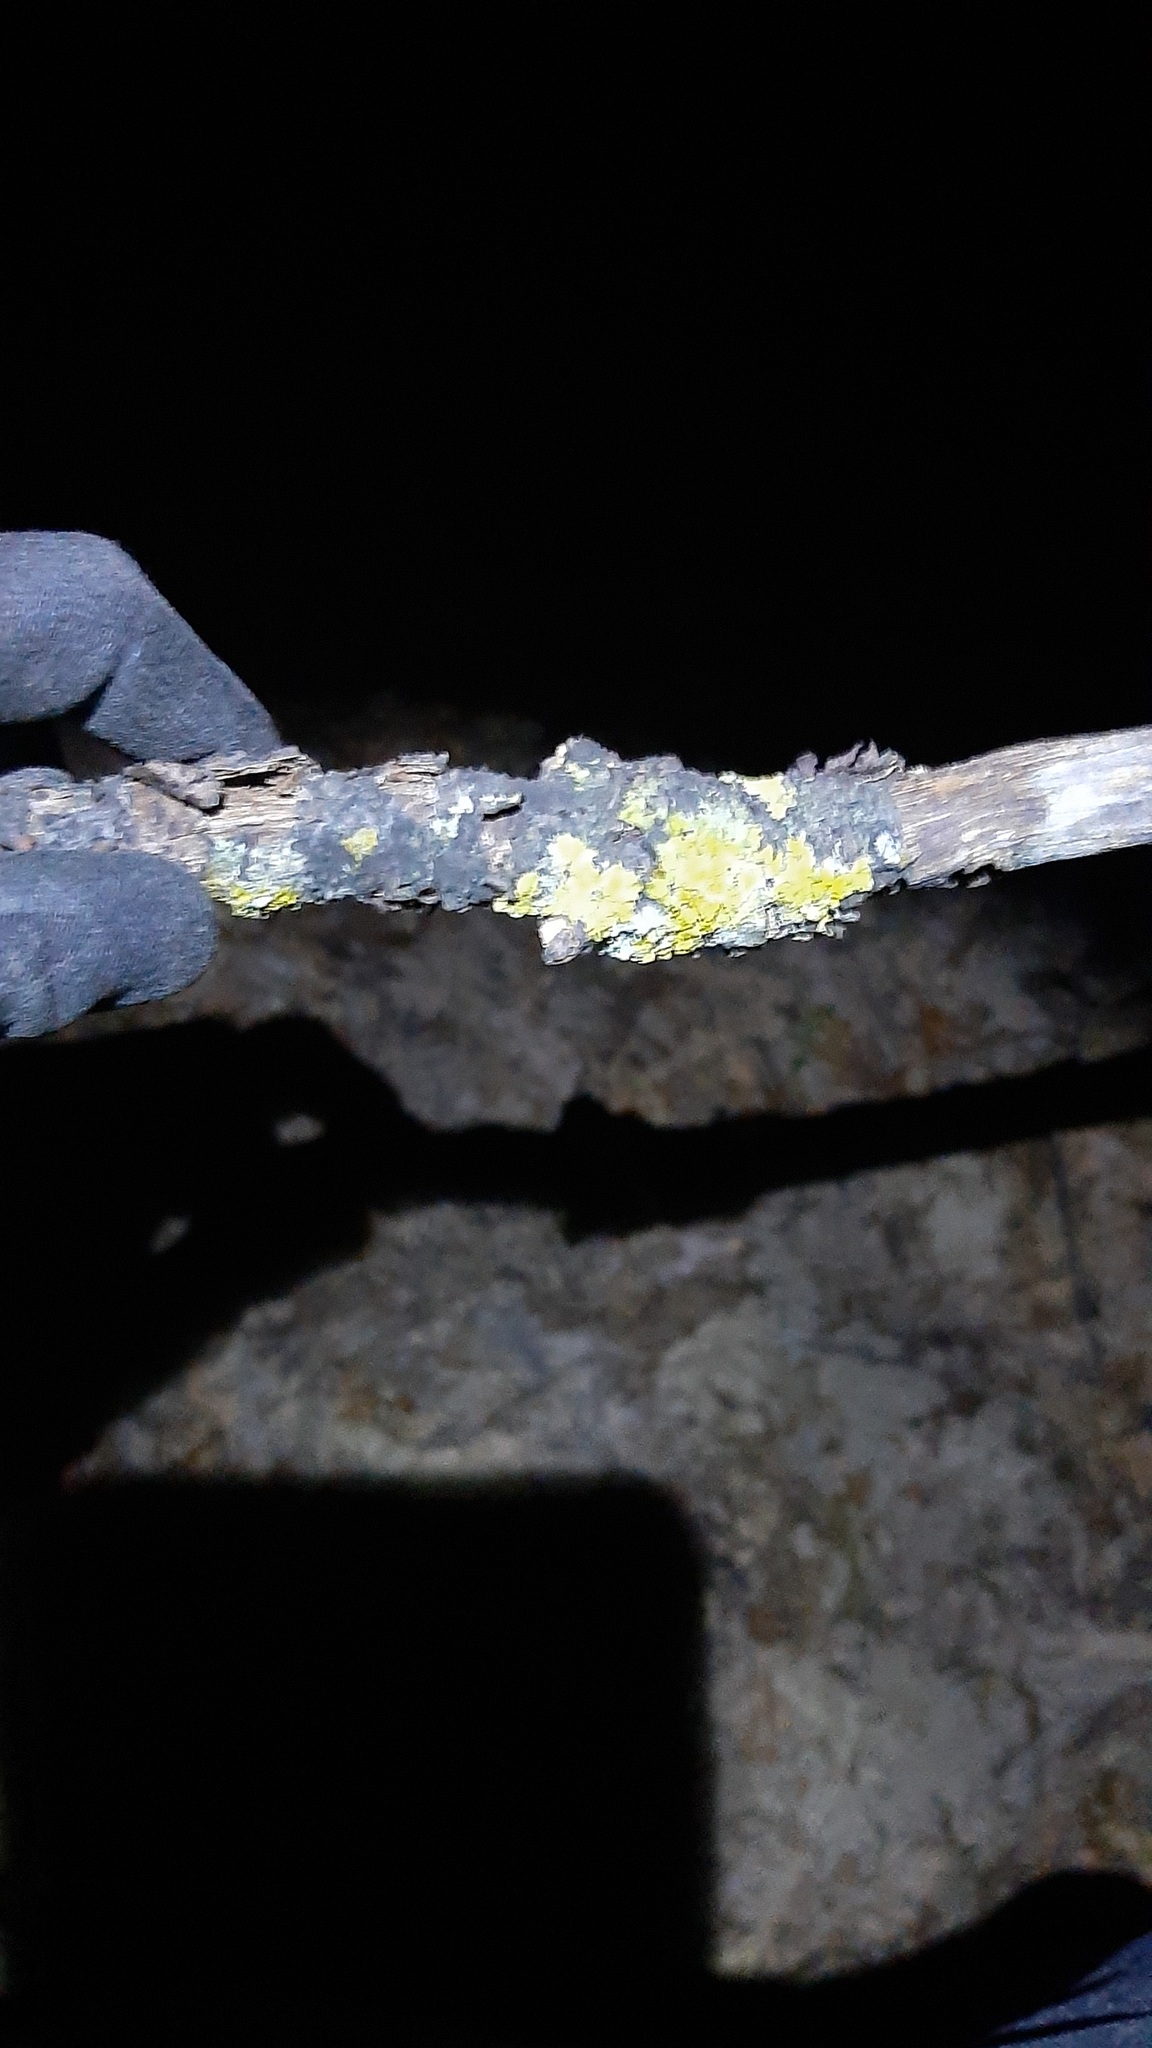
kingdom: Fungi
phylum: Ascomycota
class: Lecanoromycetes
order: Teloschistales
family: Teloschistaceae
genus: Xanthoria
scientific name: Xanthoria parietina
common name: Common orange lichen
